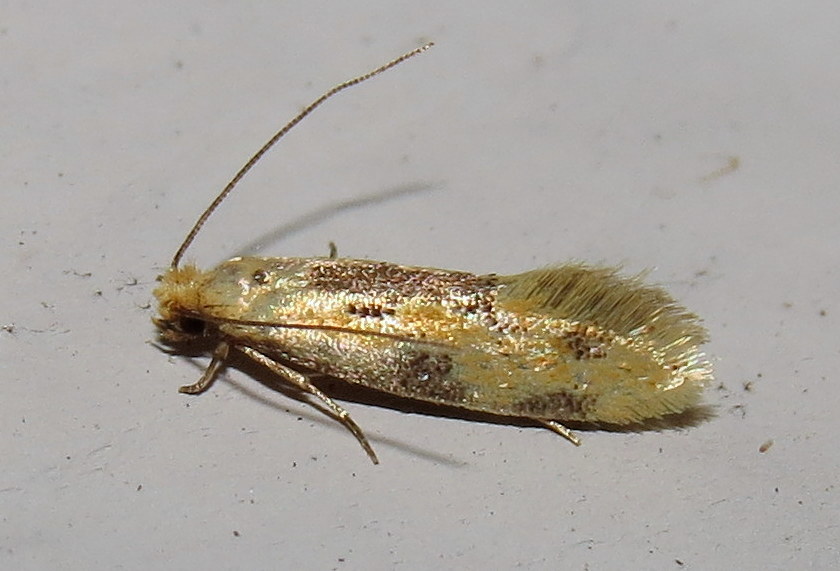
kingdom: Animalia
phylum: Arthropoda
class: Insecta
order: Lepidoptera
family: Meessiidae
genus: Hybroma
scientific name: Hybroma servulella
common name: Yellow wave moth
